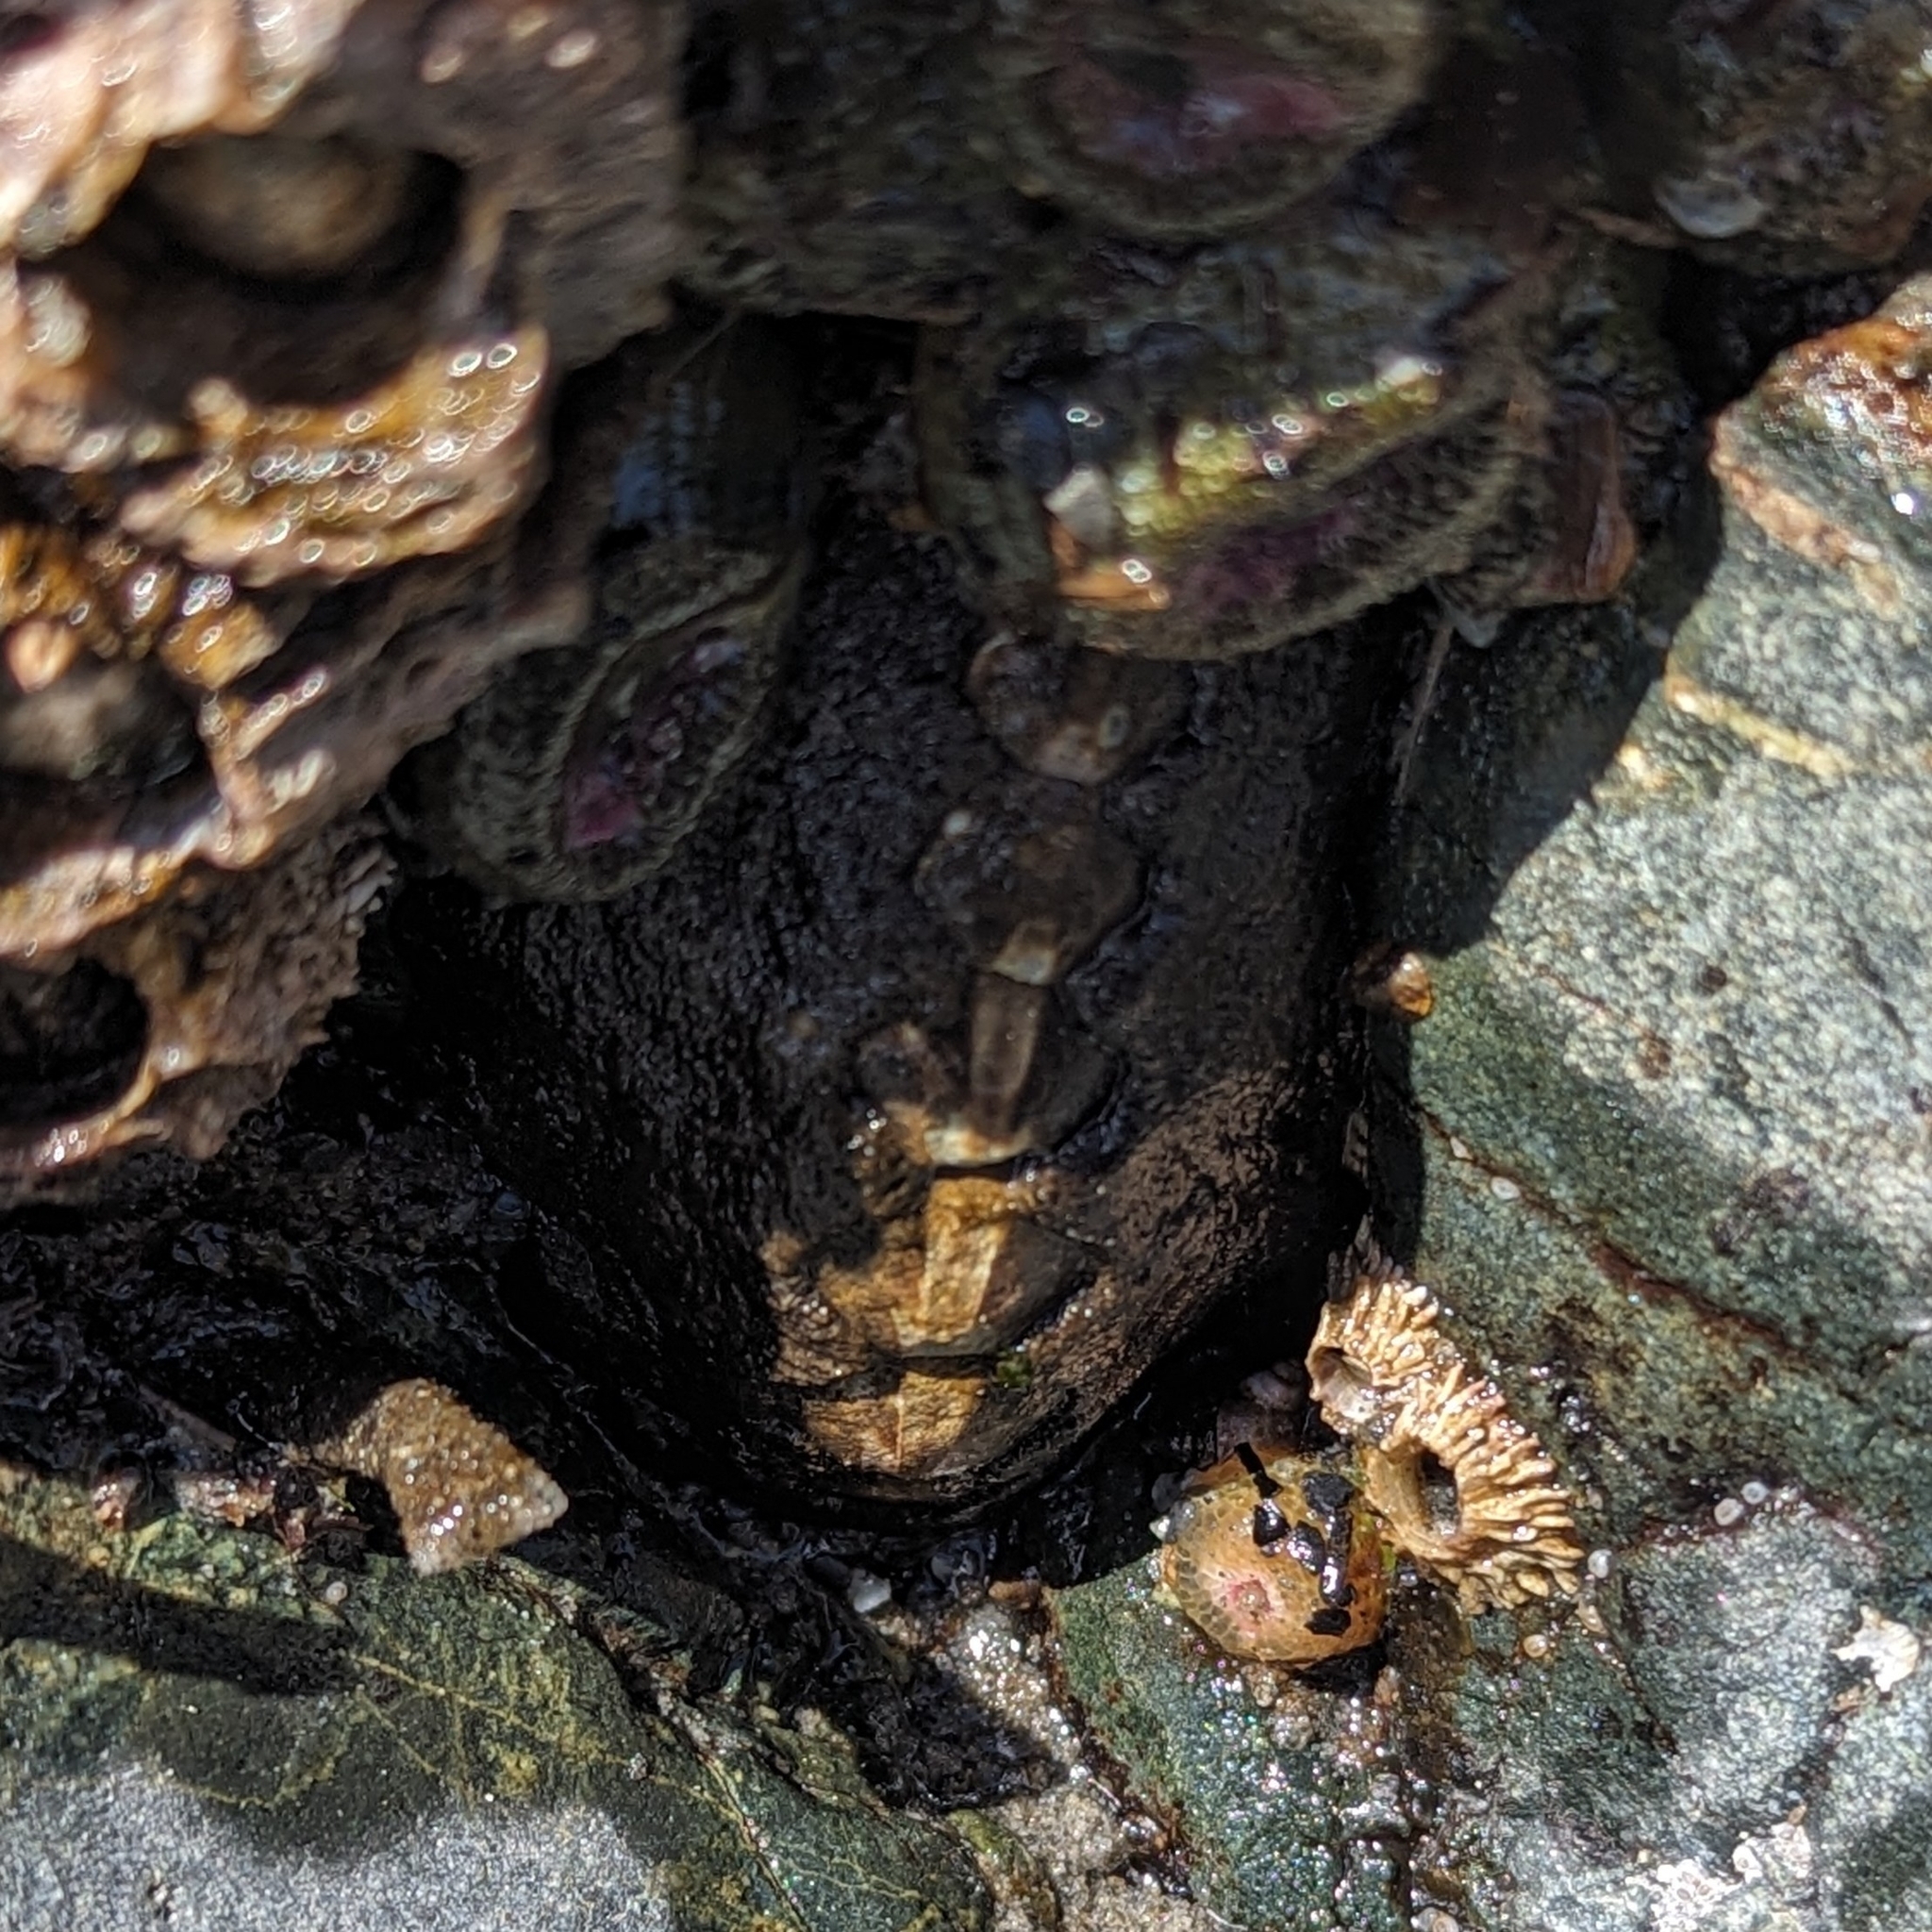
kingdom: Animalia
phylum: Mollusca
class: Polyplacophora
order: Chitonida
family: Mopaliidae
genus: Katharina
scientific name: Katharina tunicata
